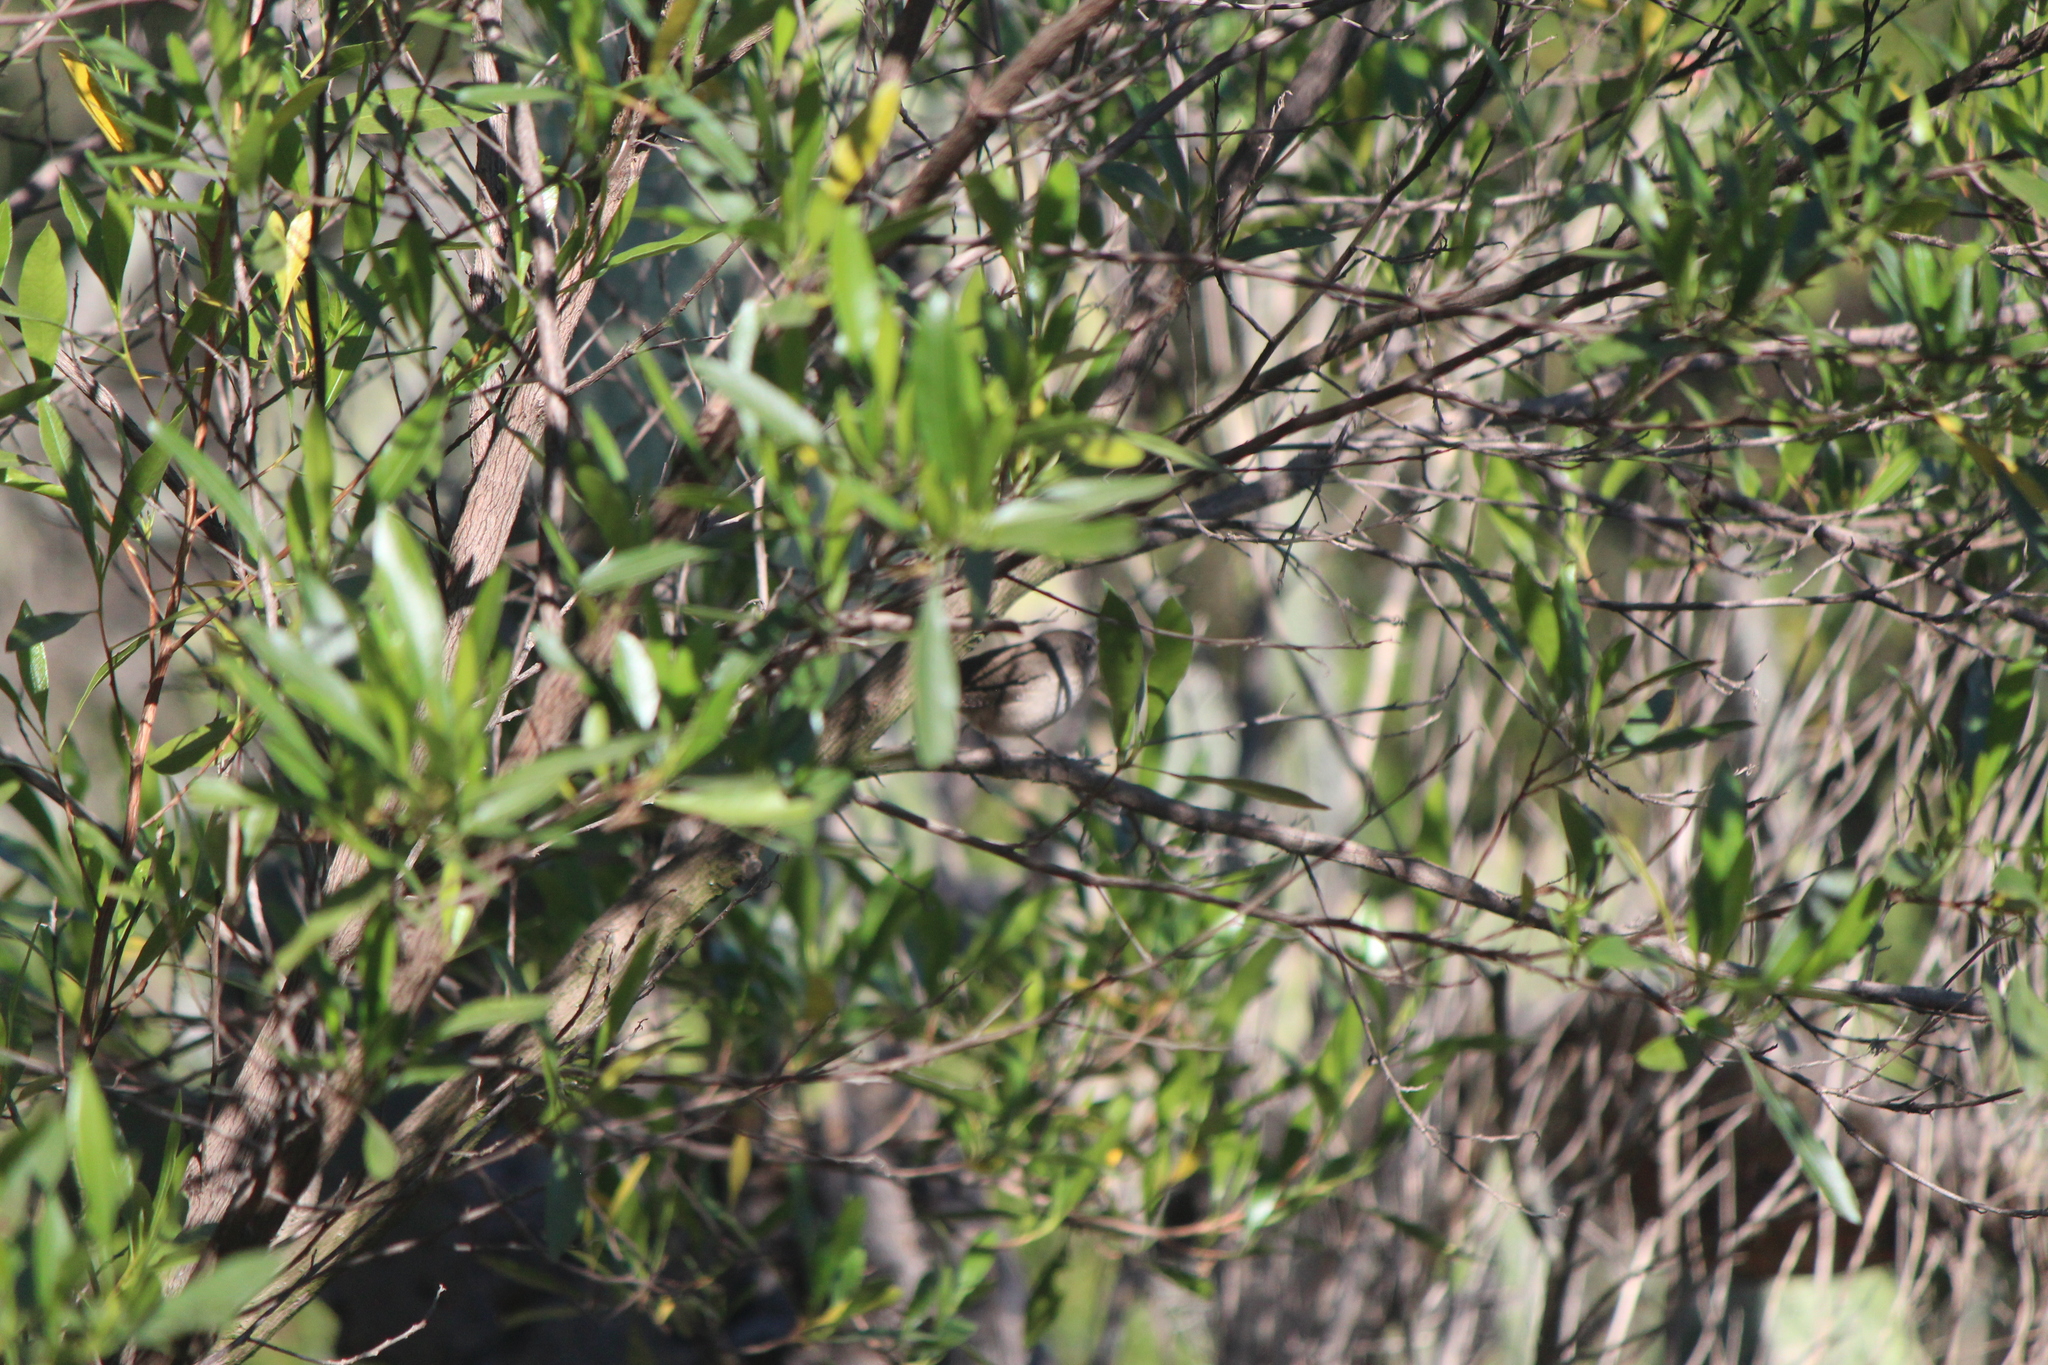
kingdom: Animalia
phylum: Chordata
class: Aves
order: Passeriformes
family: Troglodytidae
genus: Troglodytes
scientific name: Troglodytes aedon
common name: House wren
